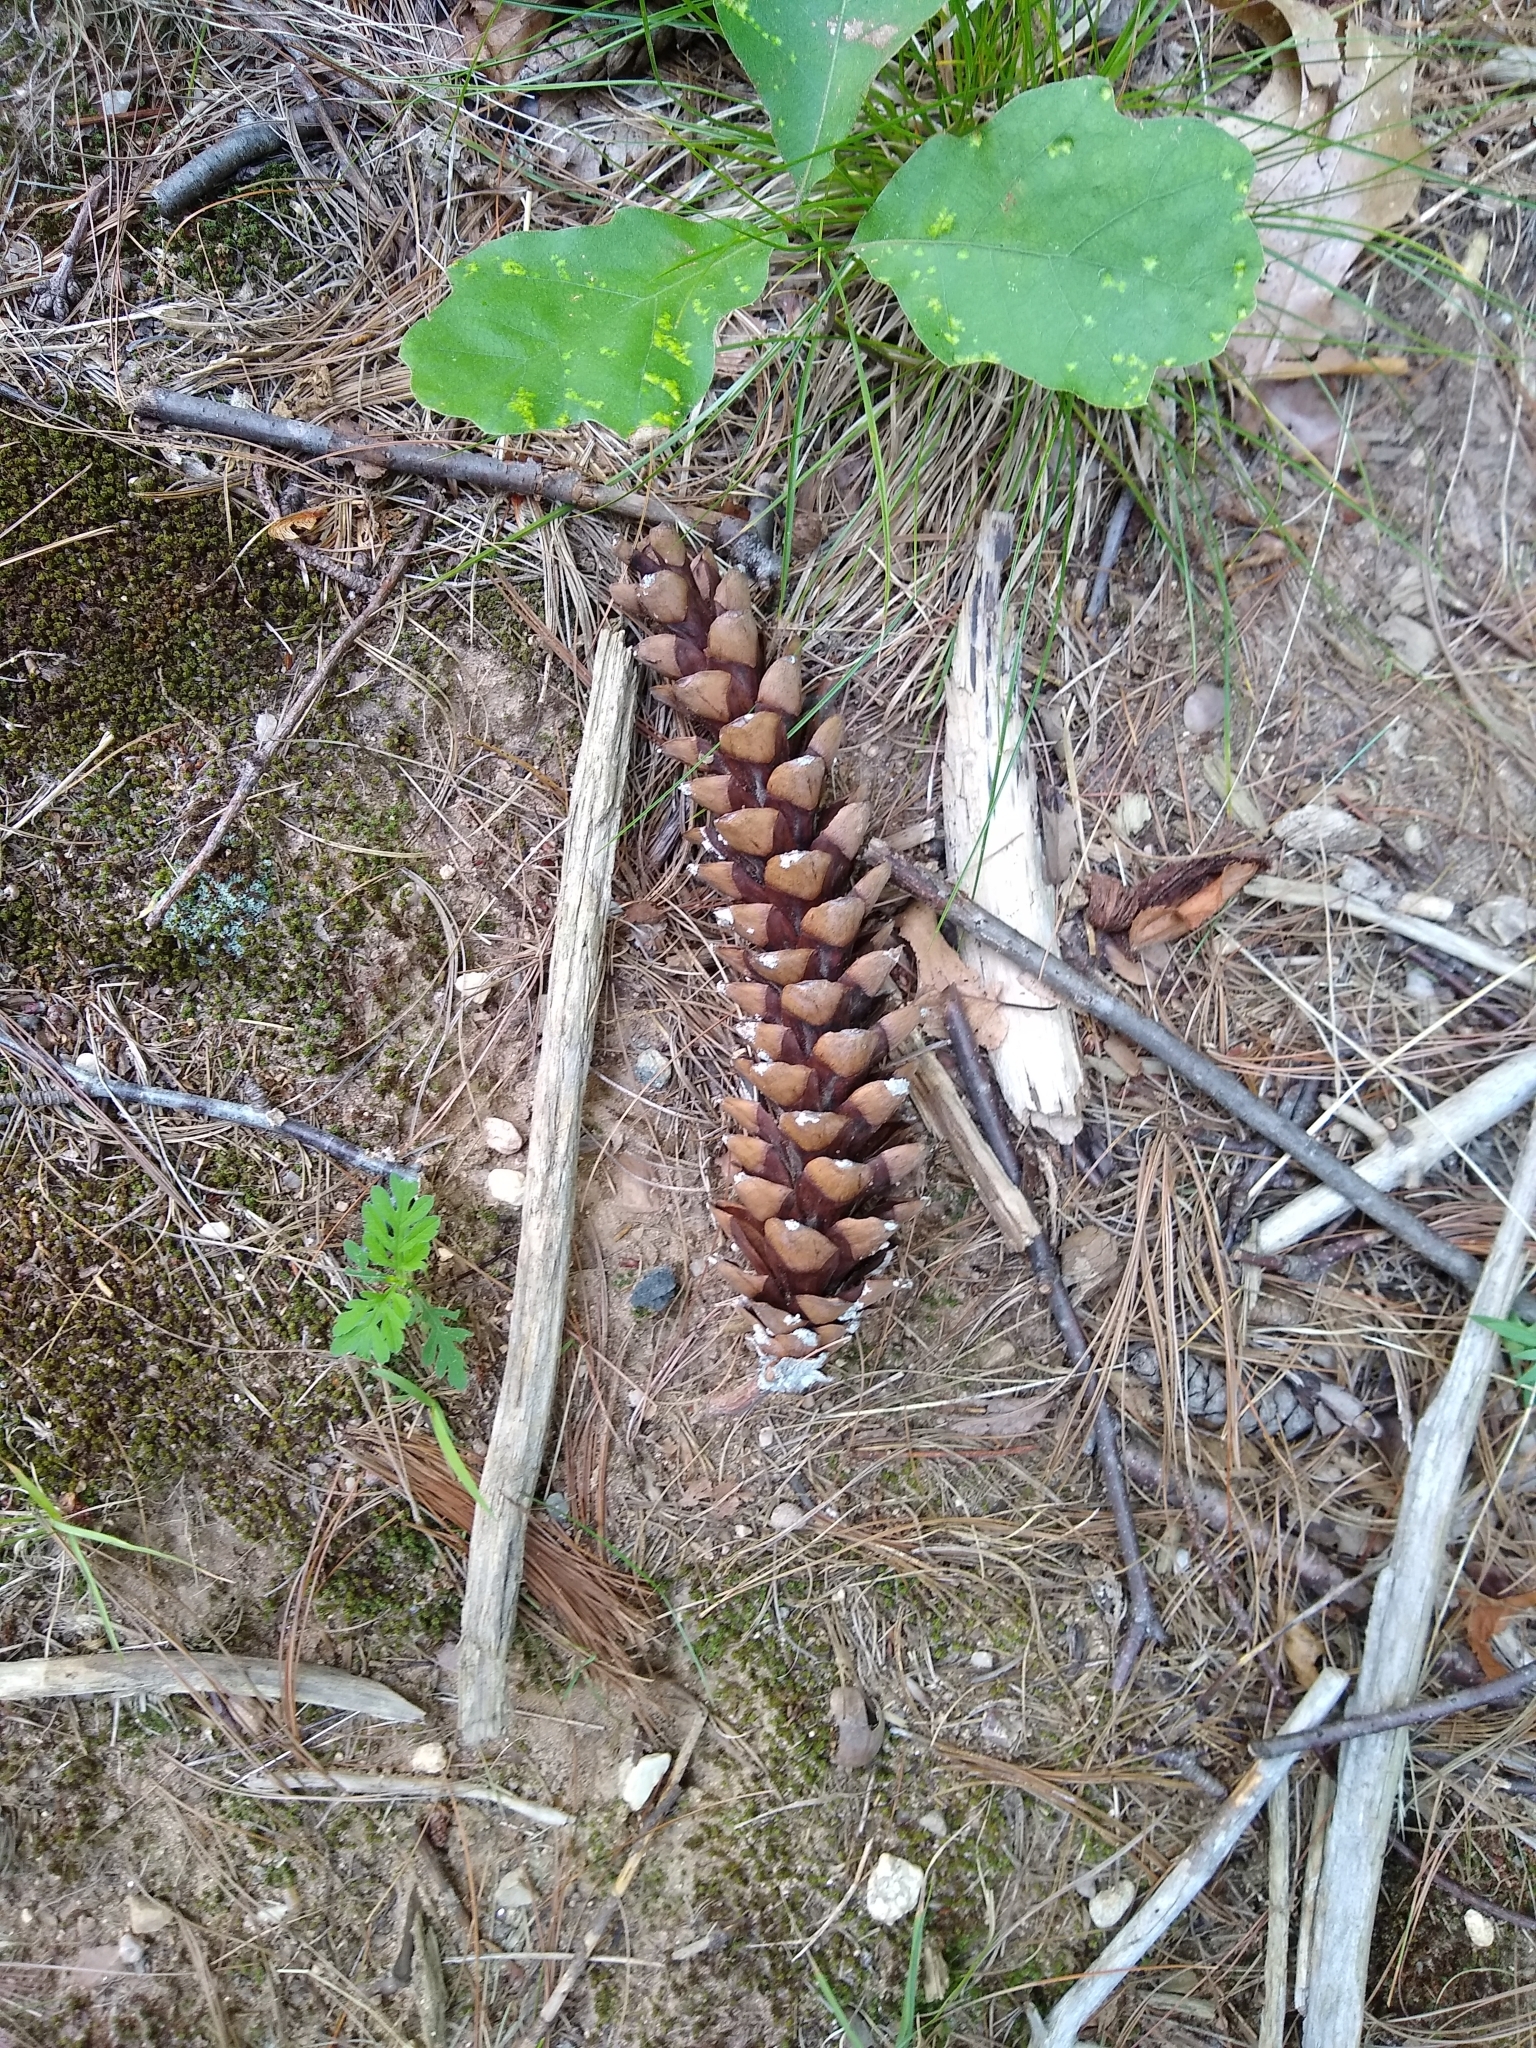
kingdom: Plantae
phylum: Tracheophyta
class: Pinopsida
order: Pinales
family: Pinaceae
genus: Pinus
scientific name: Pinus strobus
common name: Weymouth pine
